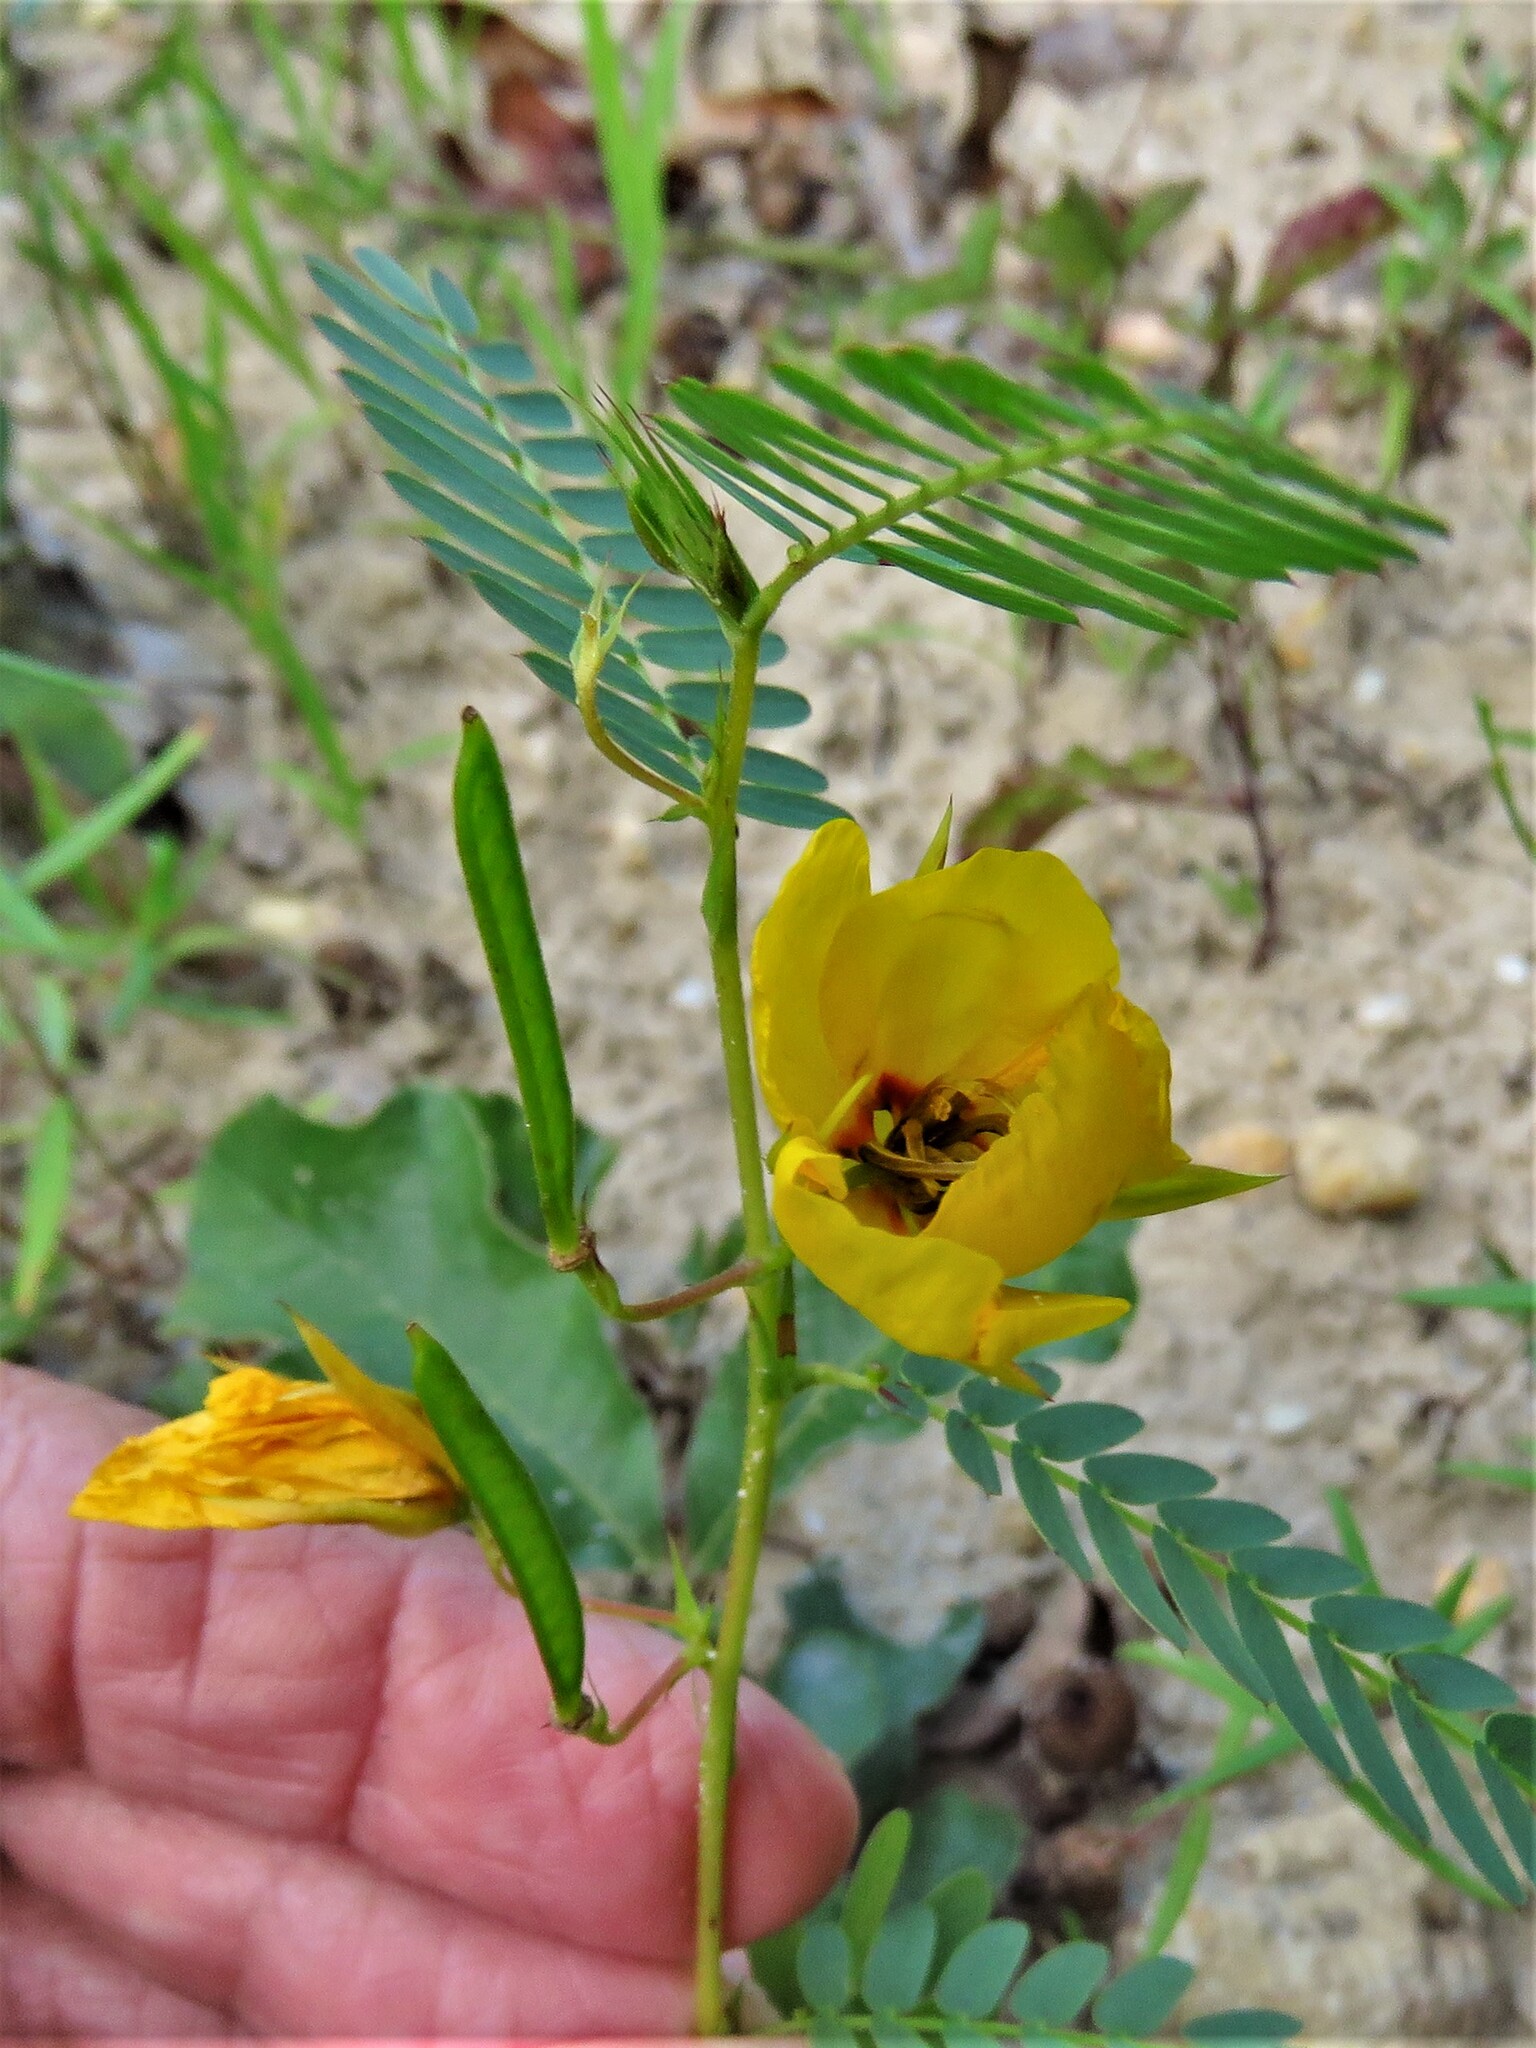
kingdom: Plantae
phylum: Tracheophyta
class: Magnoliopsida
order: Fabales
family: Fabaceae
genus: Chamaecrista
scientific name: Chamaecrista fasciculata
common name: Golden cassia
